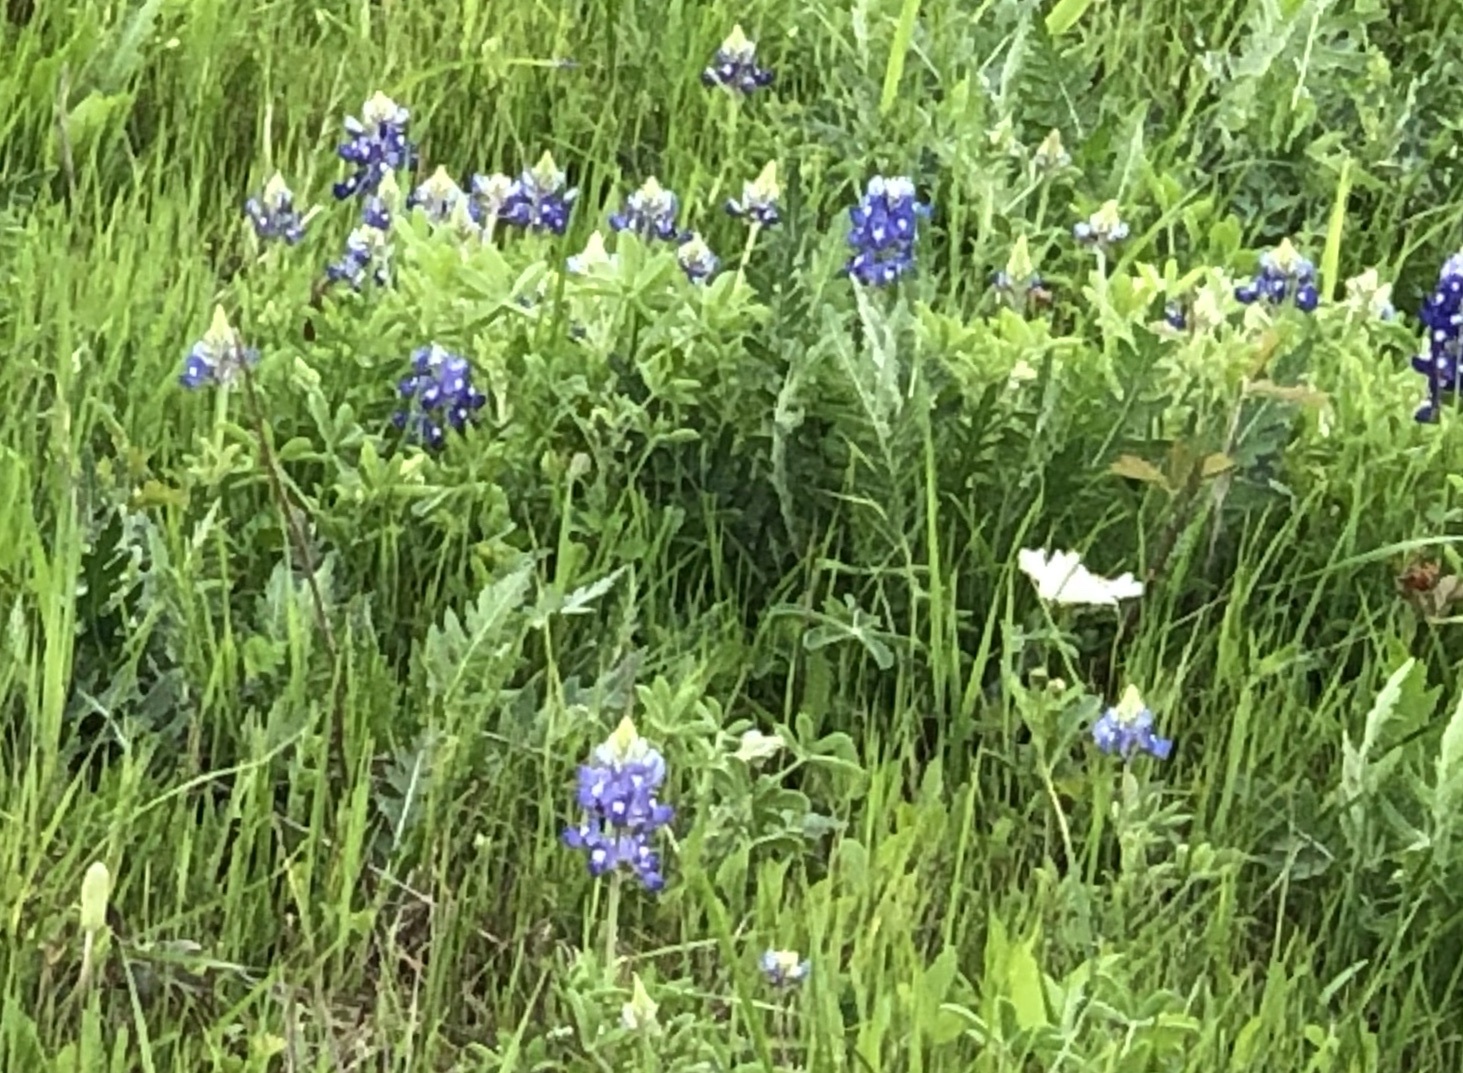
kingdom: Plantae
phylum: Tracheophyta
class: Magnoliopsida
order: Fabales
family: Fabaceae
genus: Lupinus
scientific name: Lupinus texensis
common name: Texas bluebonnet
